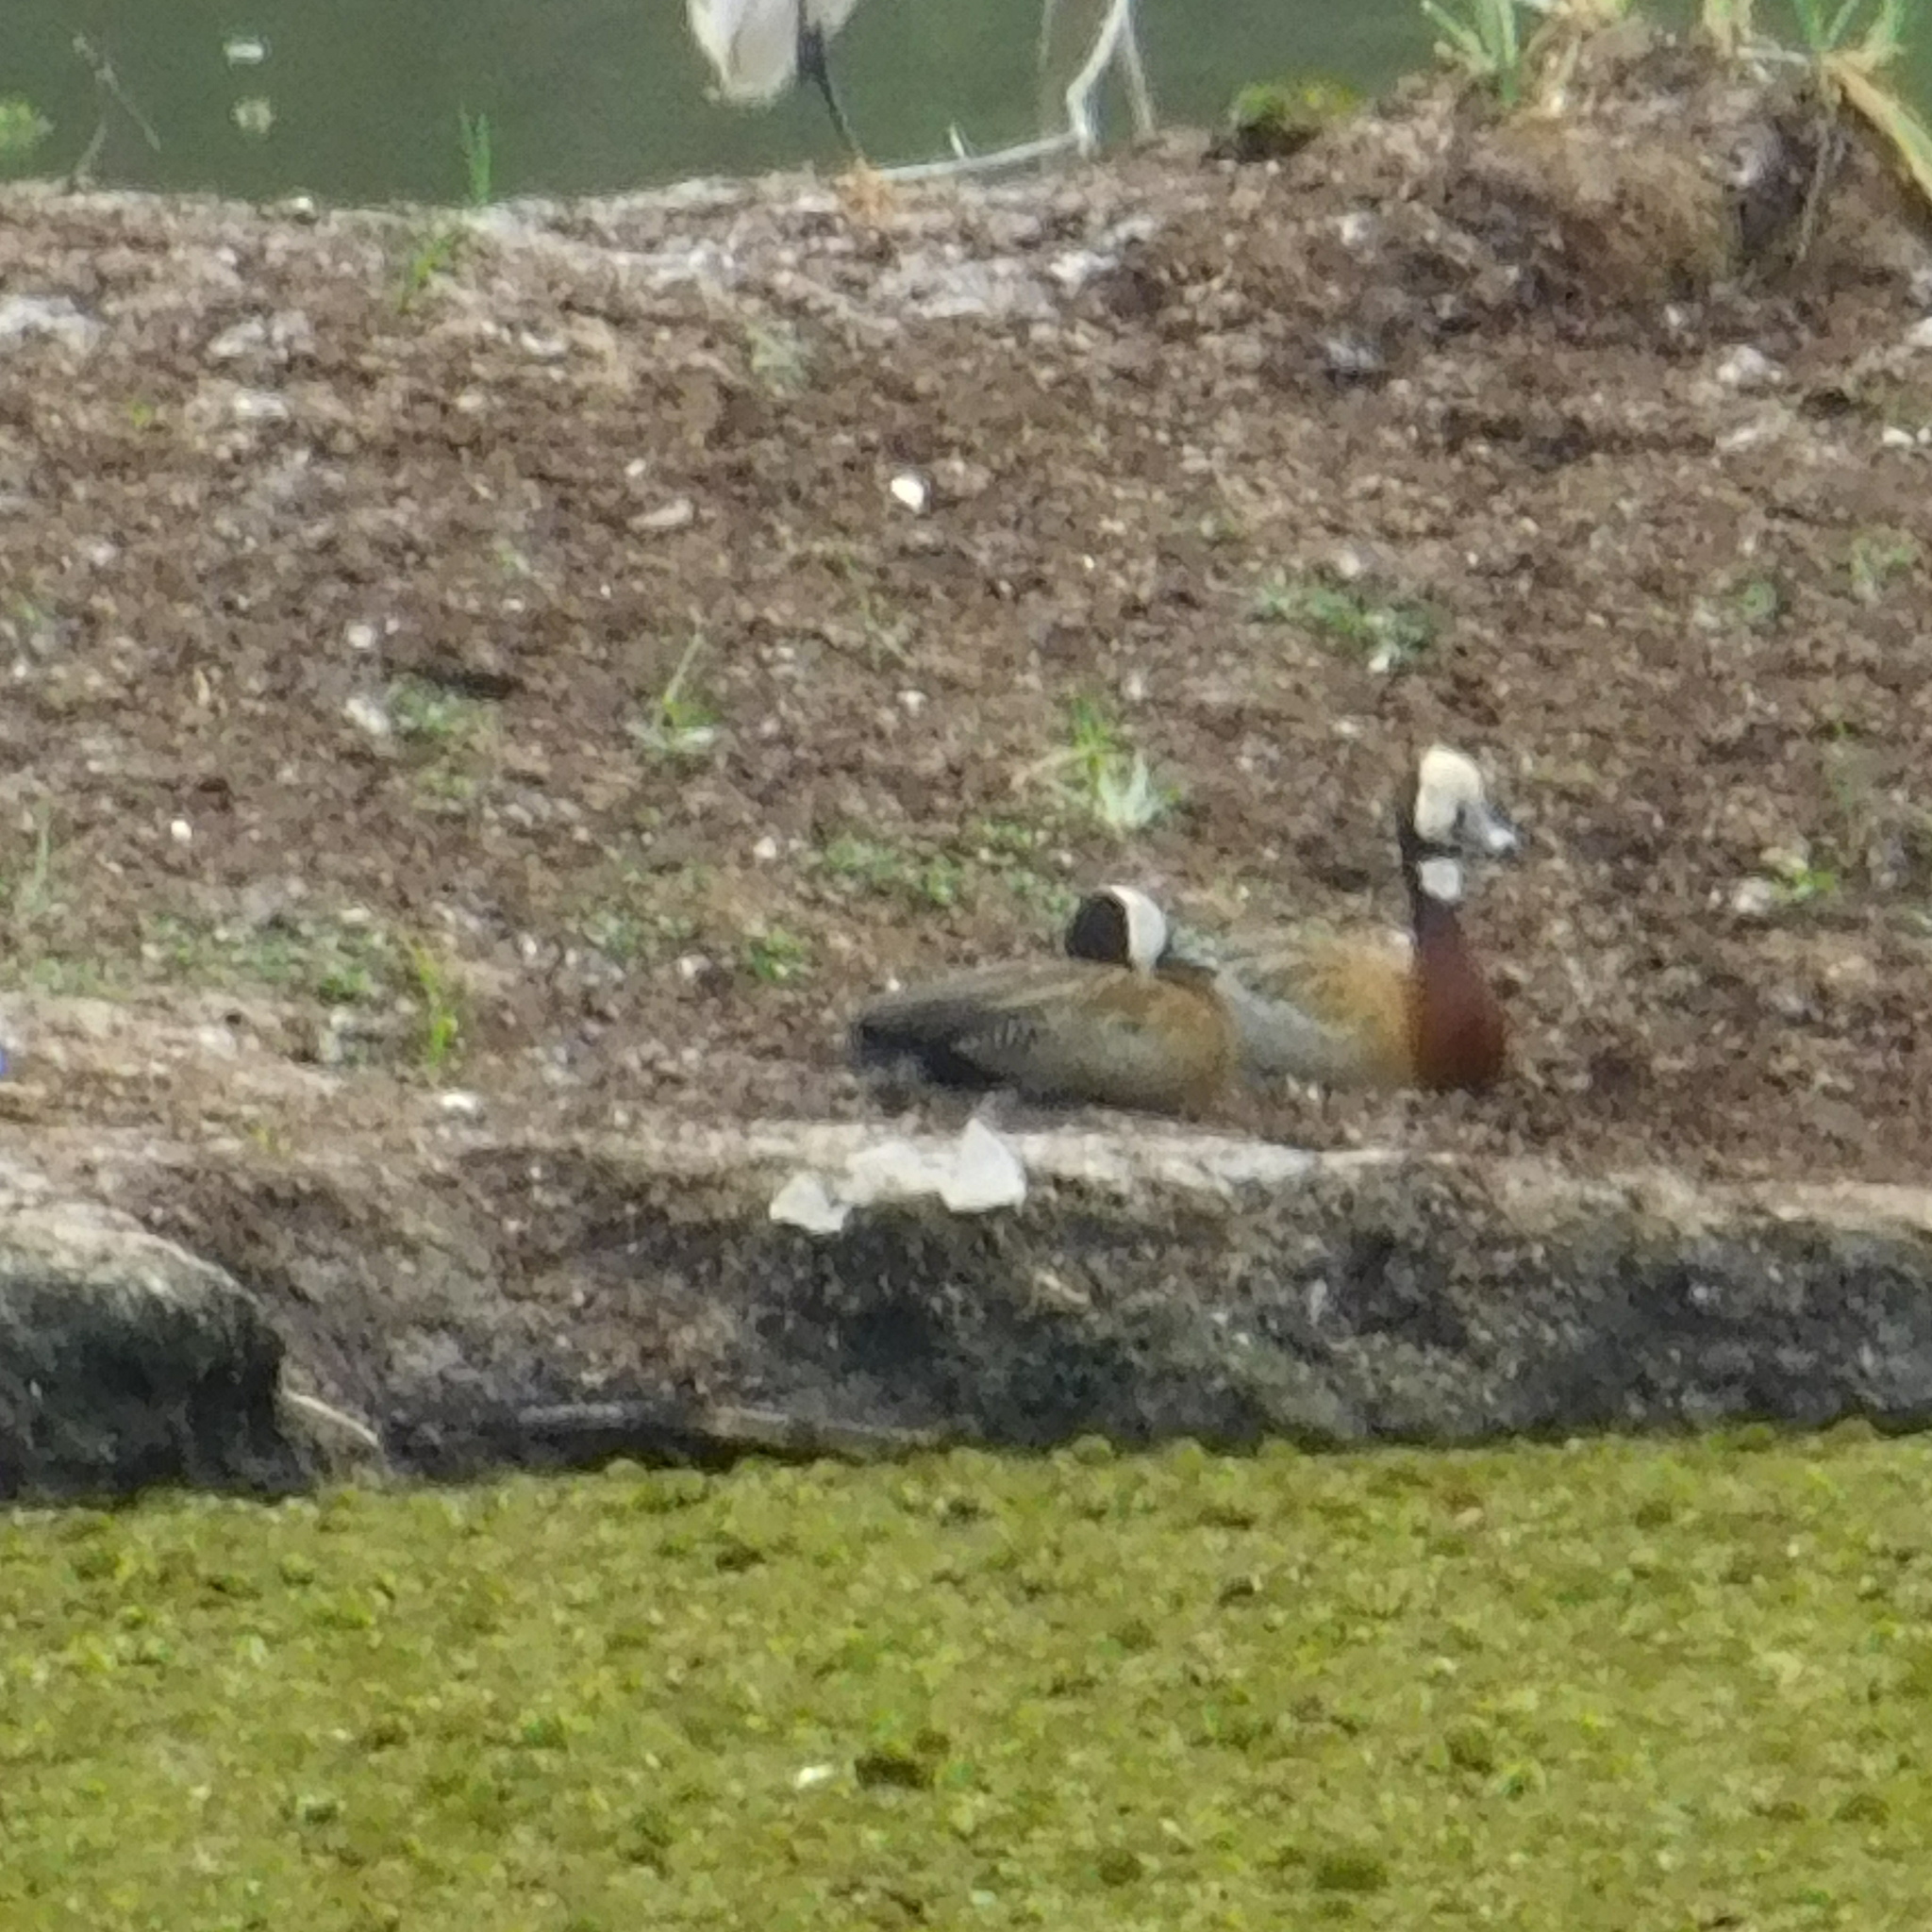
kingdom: Animalia
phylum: Chordata
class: Aves
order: Anseriformes
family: Anatidae
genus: Dendrocygna
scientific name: Dendrocygna viduata
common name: White-faced whistling duck
